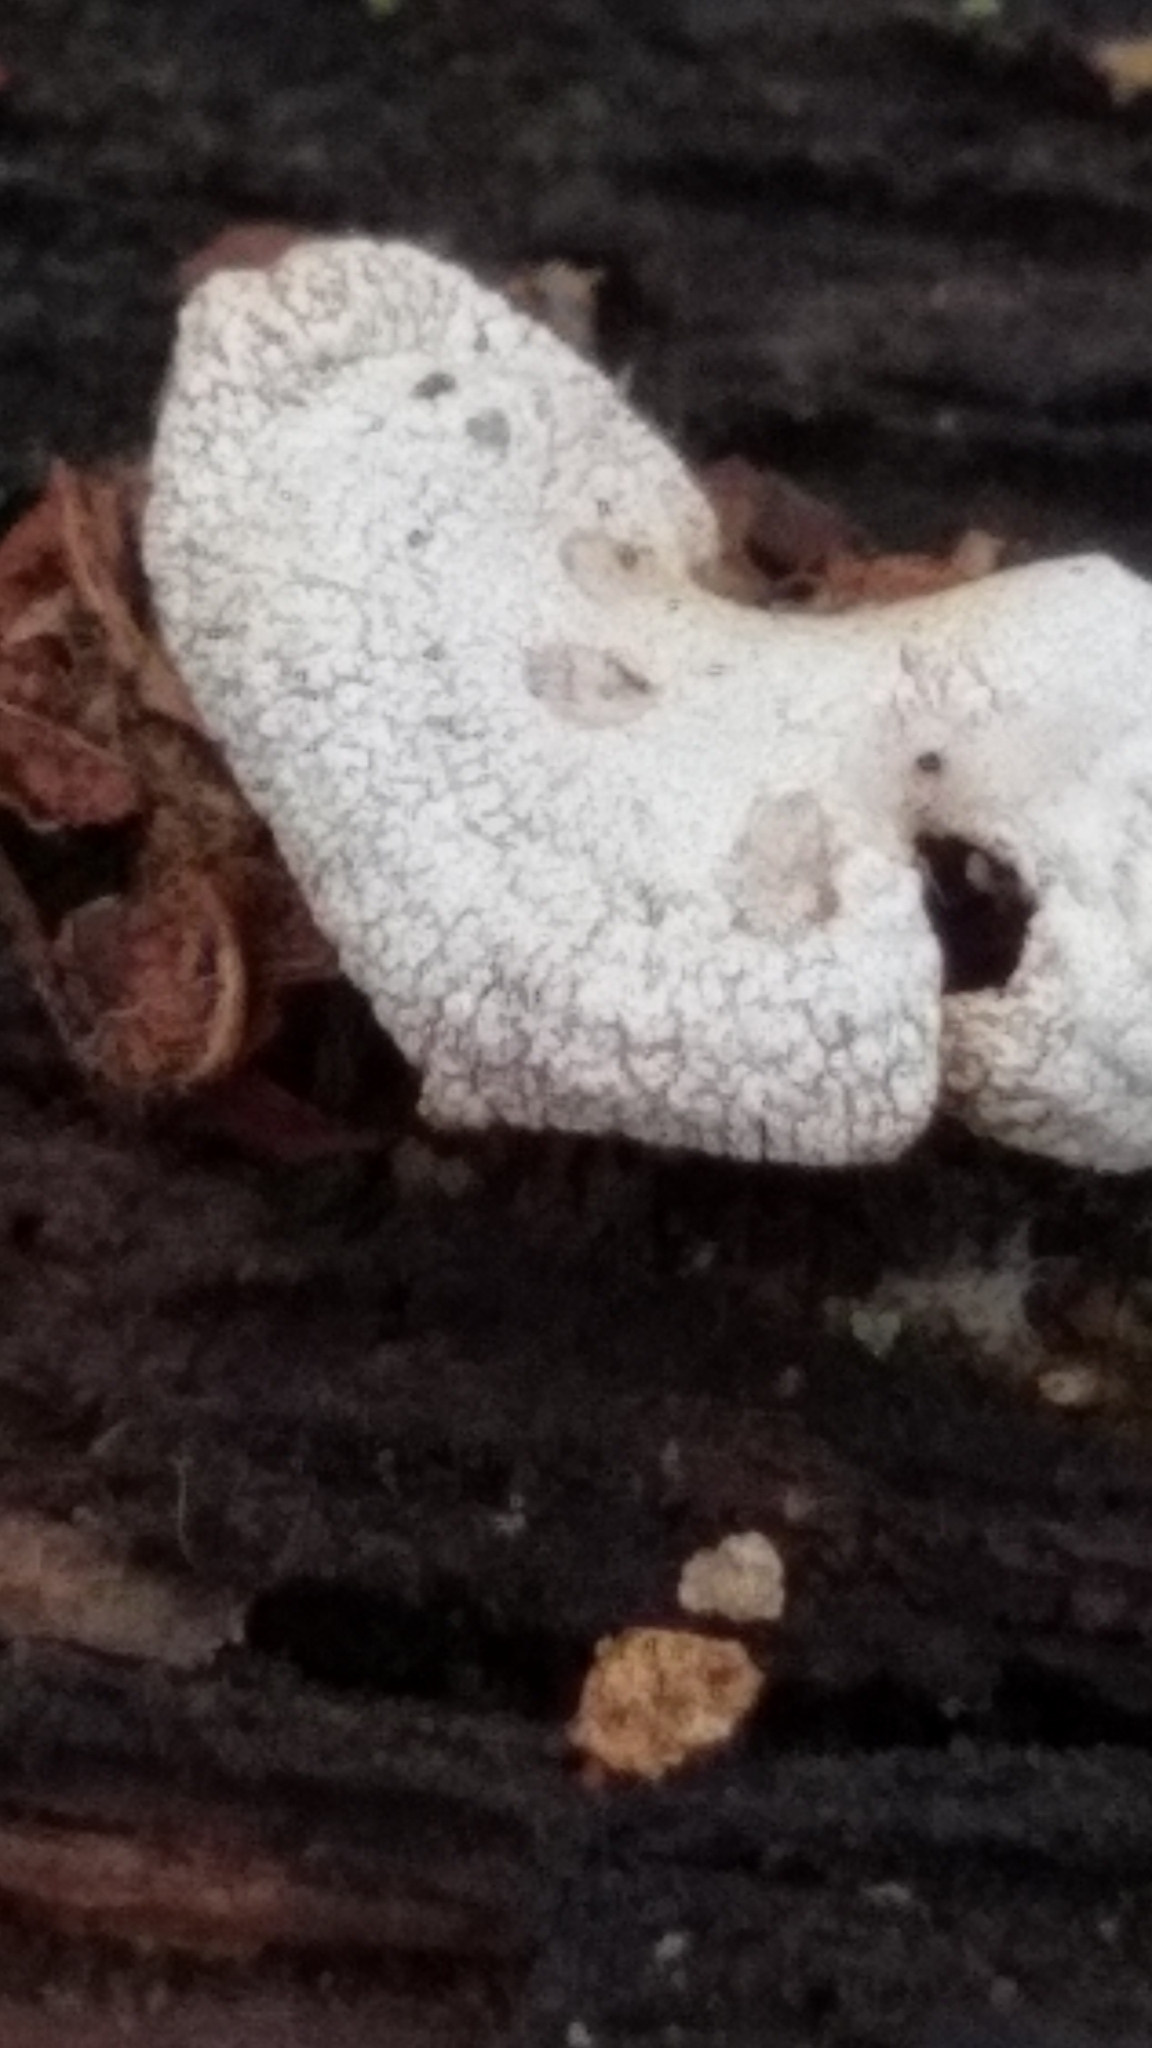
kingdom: Fungi
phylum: Basidiomycota
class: Agaricomycetes
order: Agaricales
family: Mycenaceae
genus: Panellus
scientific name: Panellus stipticus
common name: Bitter oysterling
